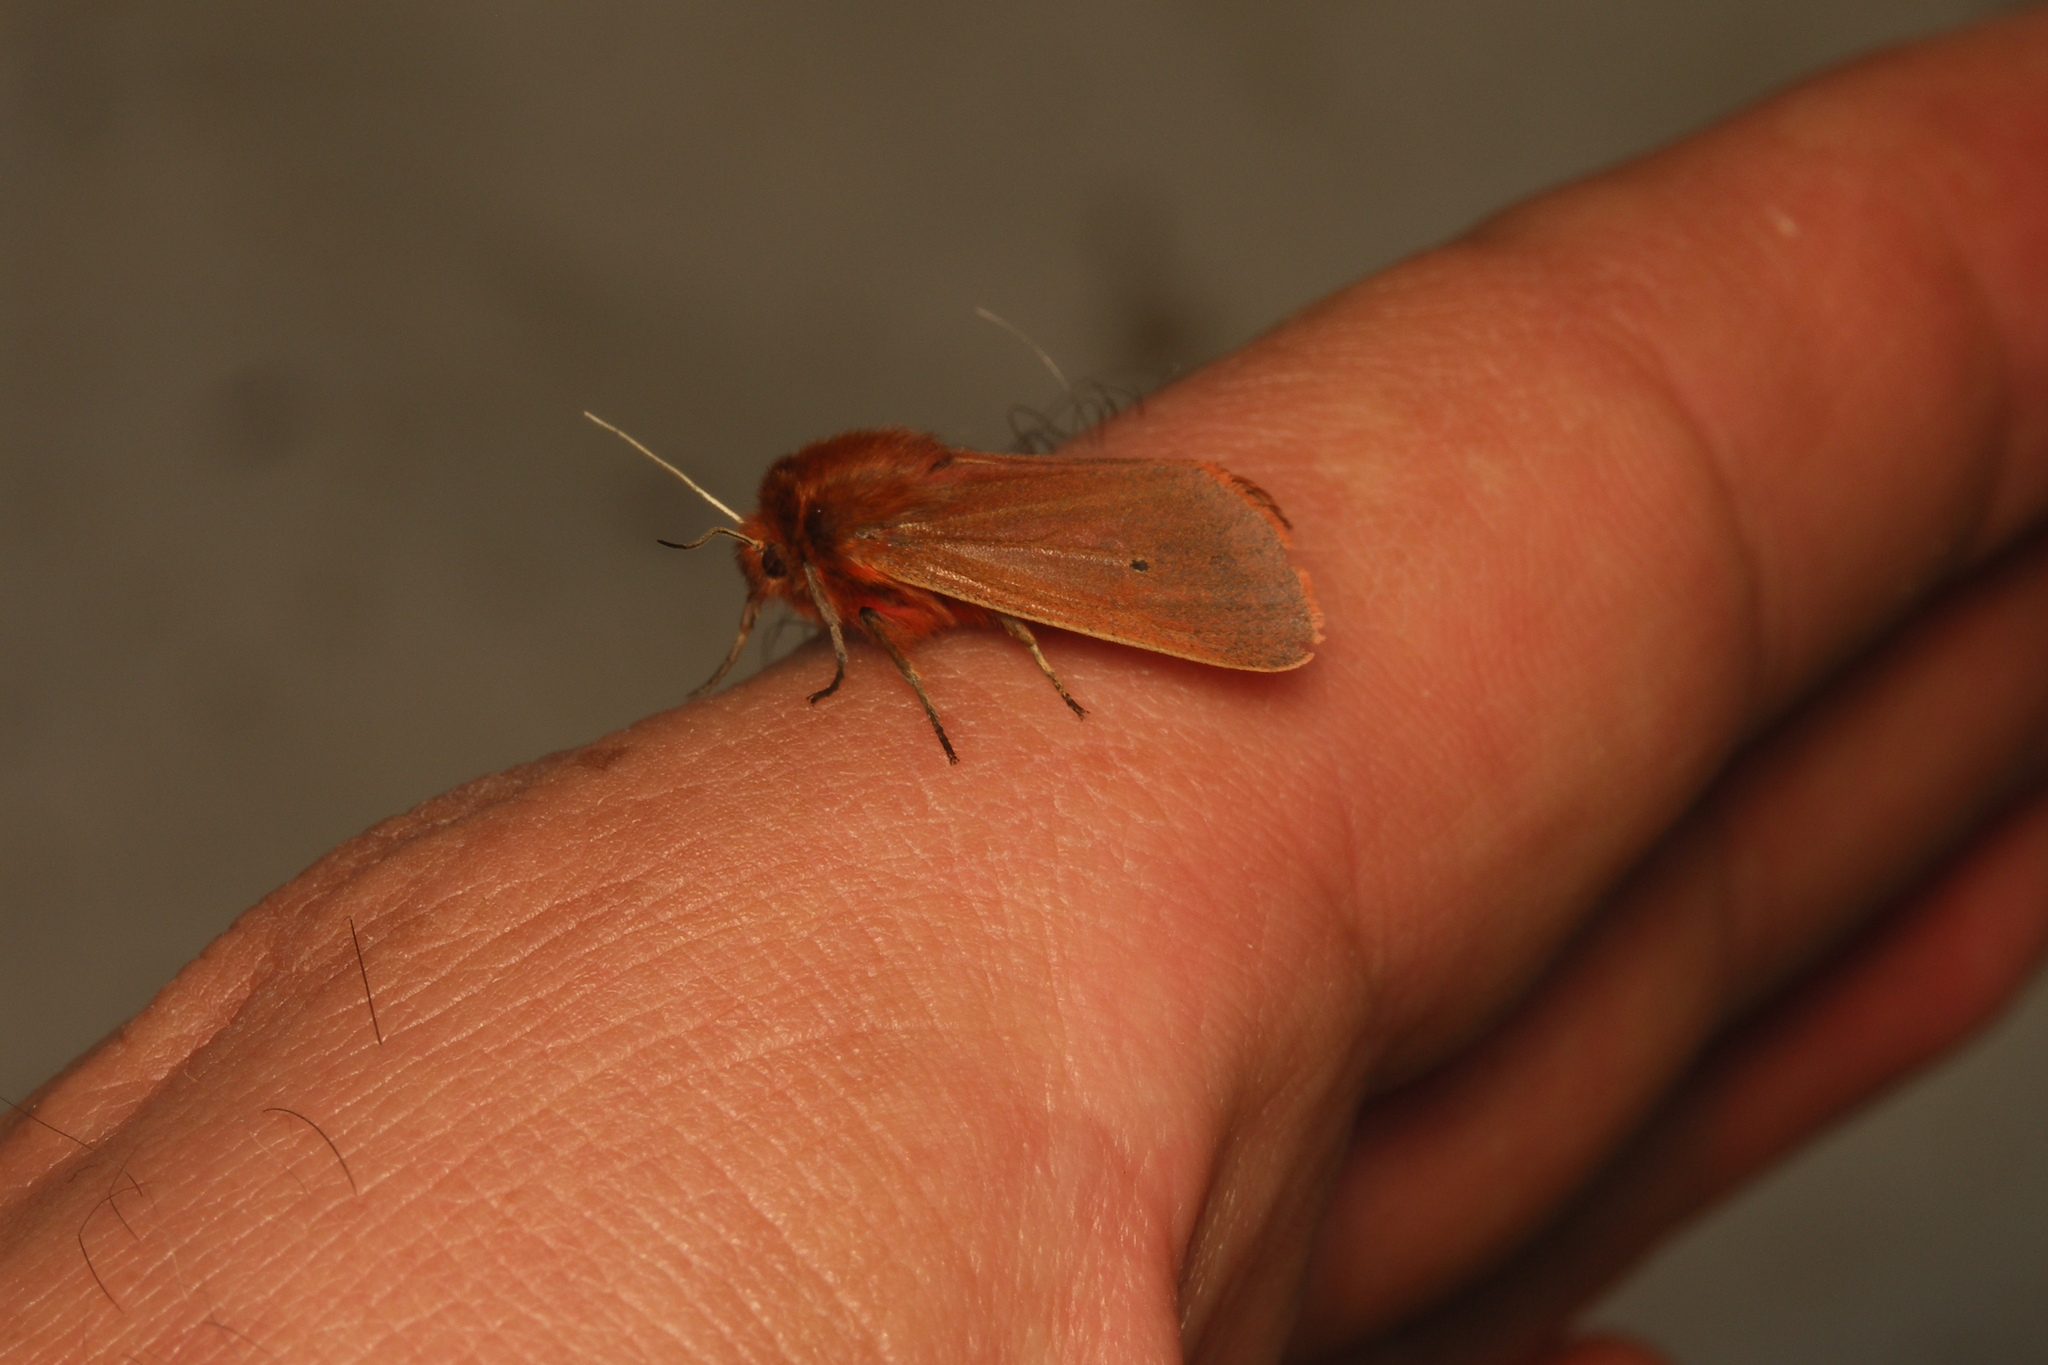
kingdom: Animalia
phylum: Arthropoda
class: Insecta
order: Lepidoptera
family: Erebidae
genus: Phragmatobia
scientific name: Phragmatobia fuliginosa
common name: Ruby tiger
